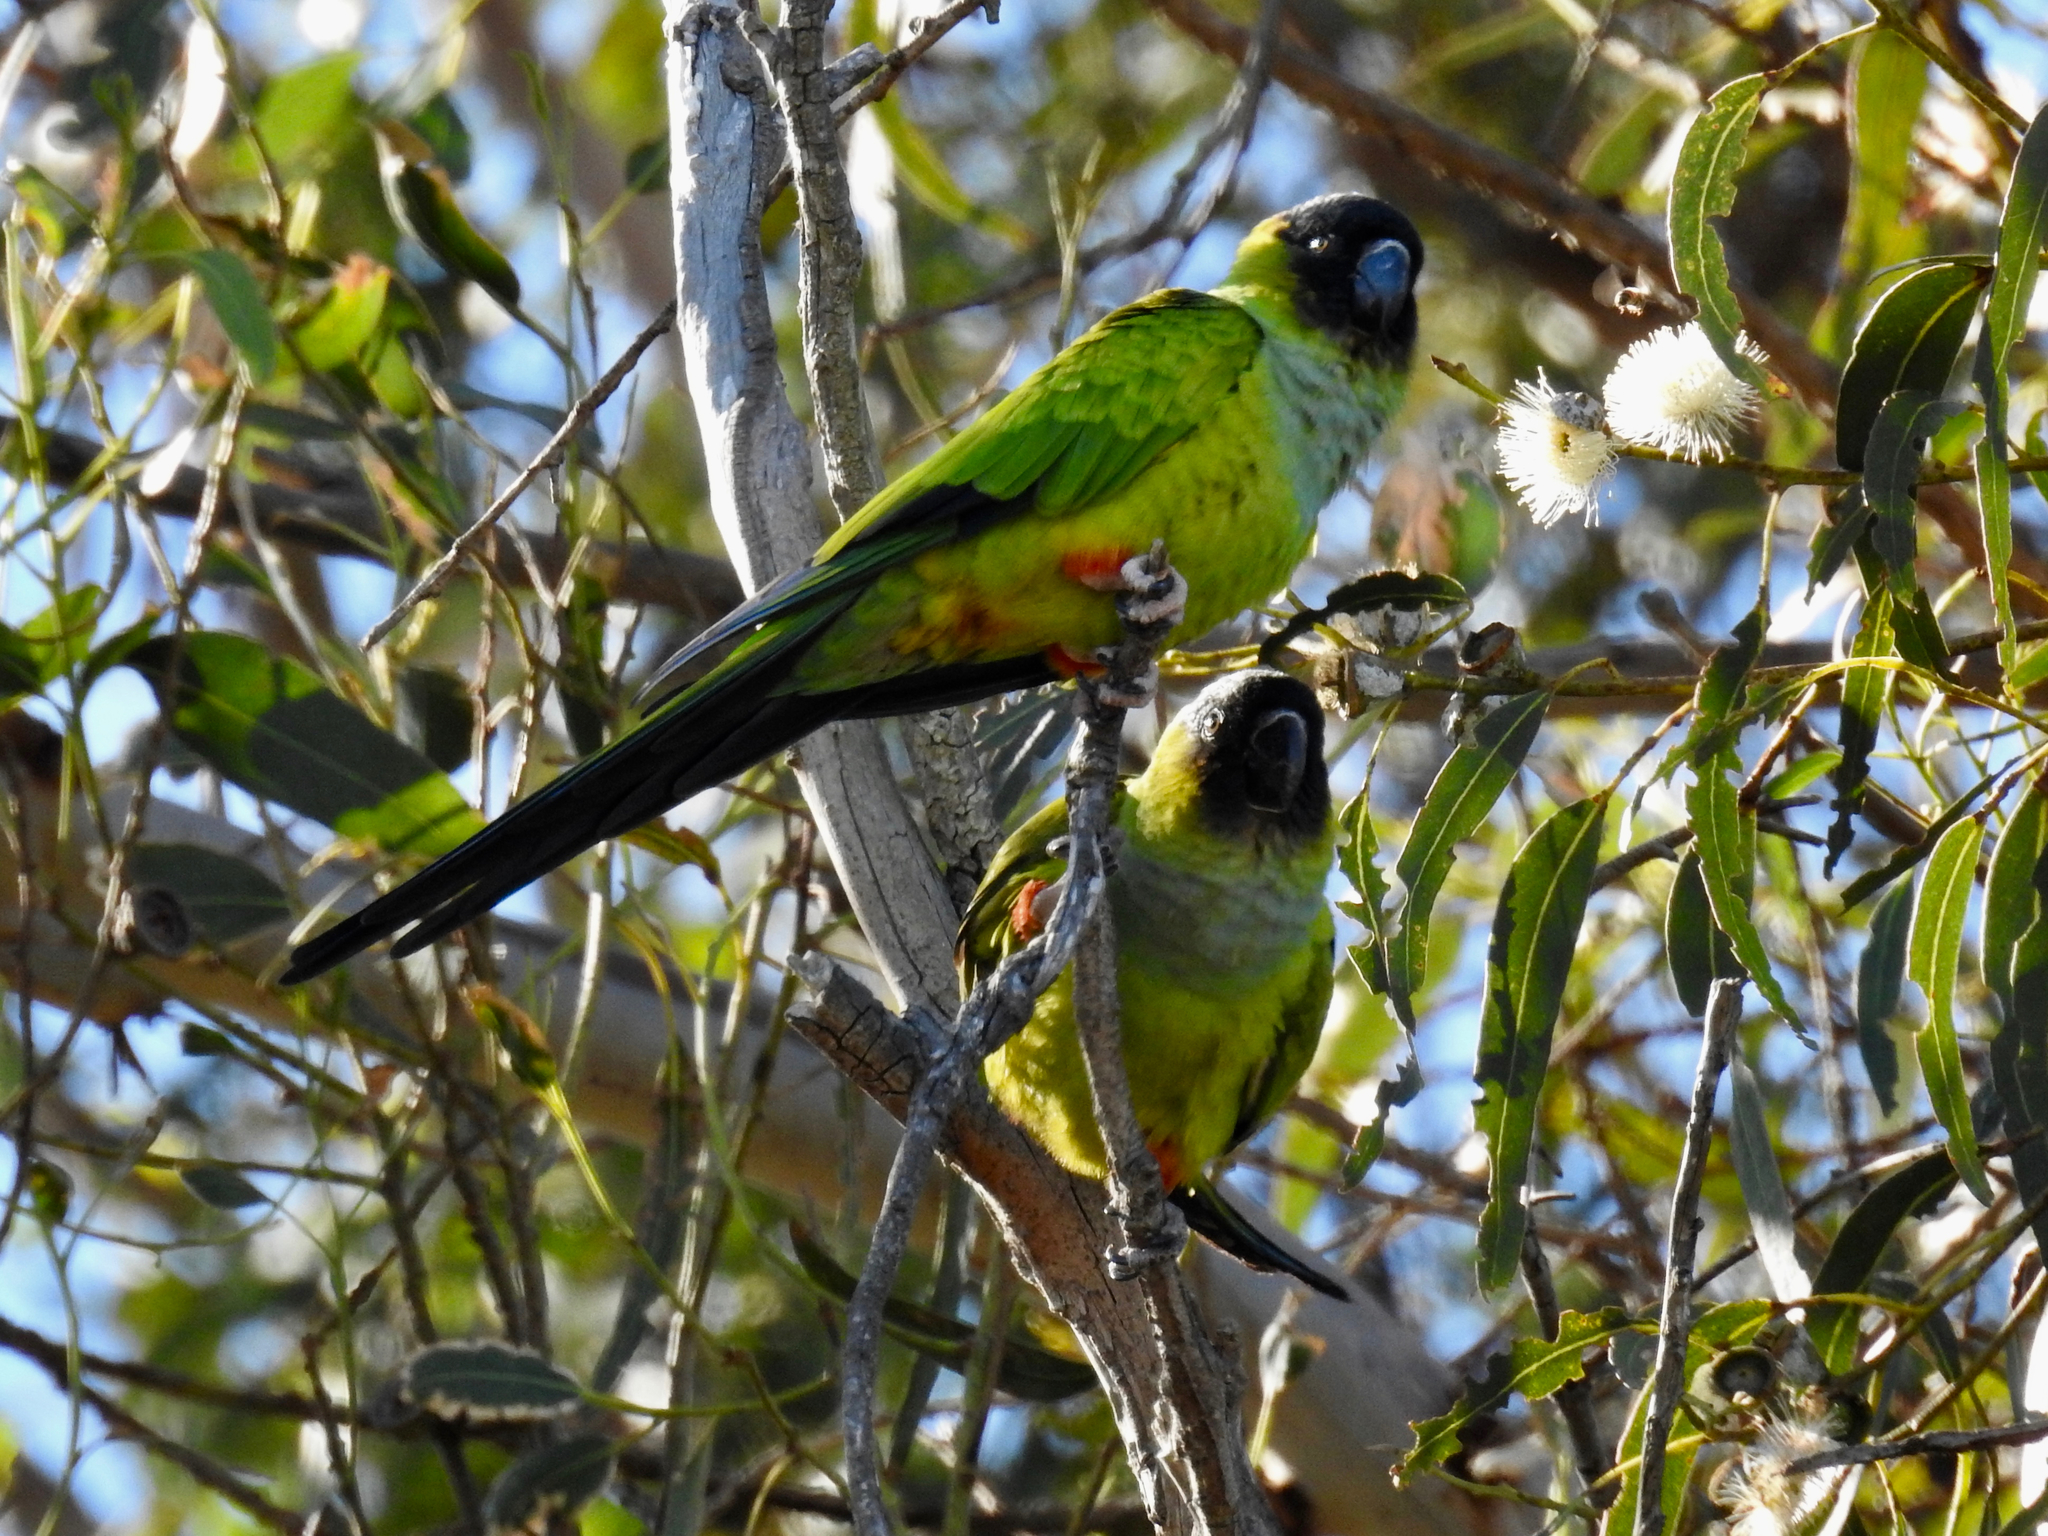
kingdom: Animalia
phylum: Chordata
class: Aves
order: Psittaciformes
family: Psittacidae
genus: Nandayus
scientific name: Nandayus nenday
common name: Nanday parakeet
